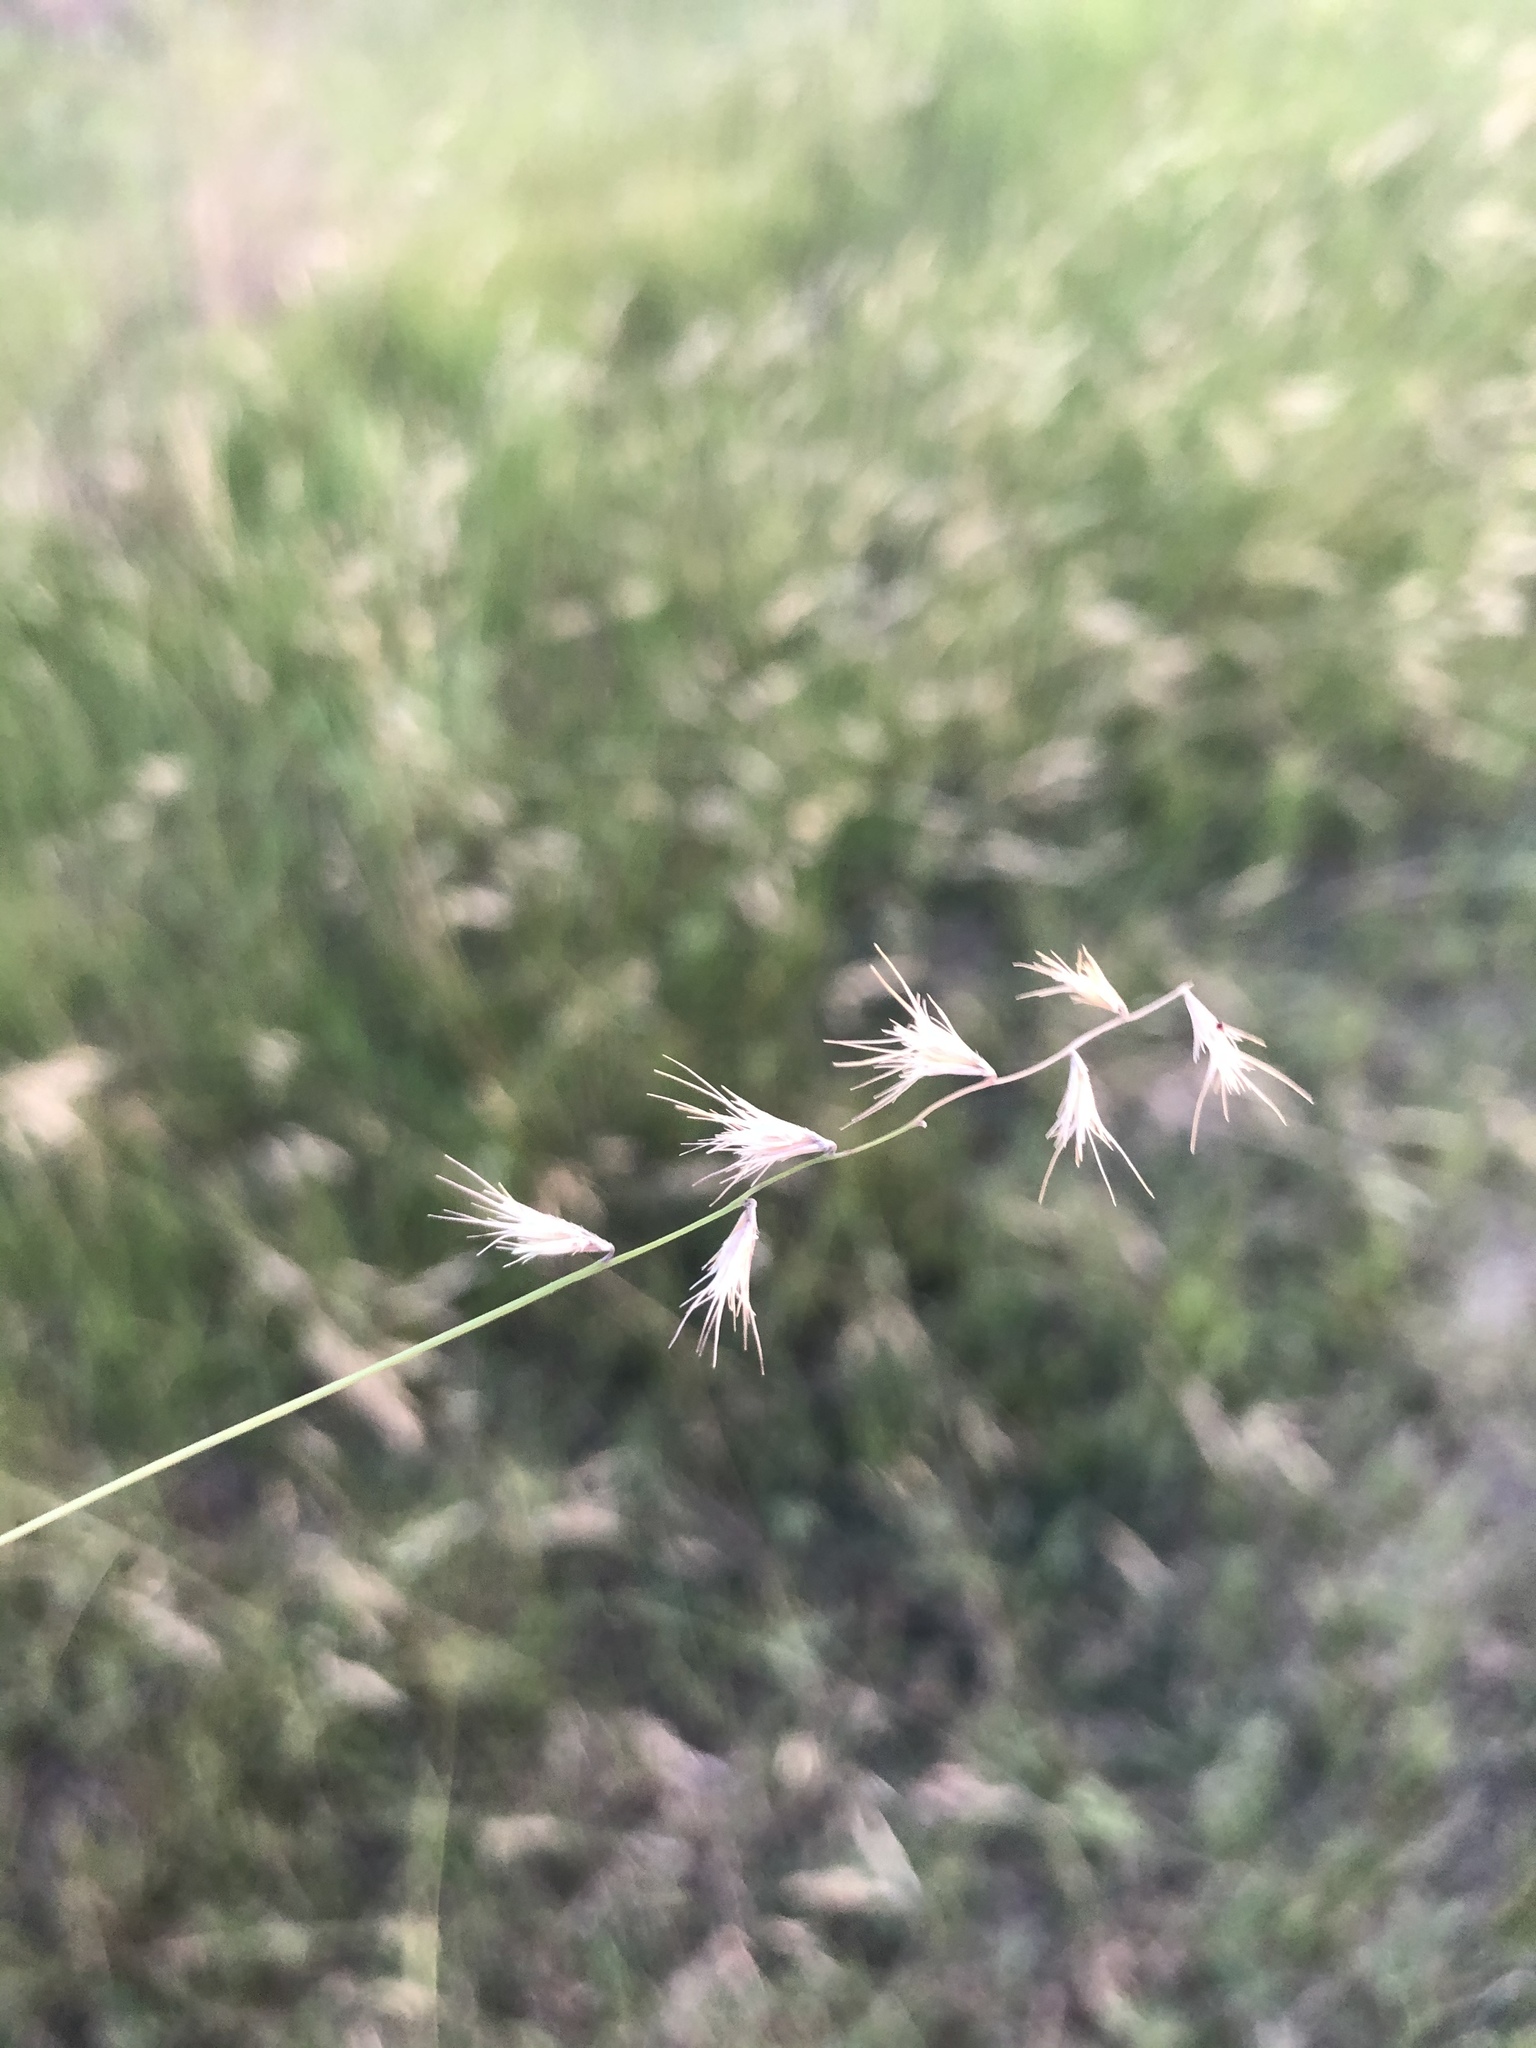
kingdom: Plantae
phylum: Tracheophyta
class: Liliopsida
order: Poales
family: Poaceae
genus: Bouteloua
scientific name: Bouteloua rigidiseta
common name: Texas grama
